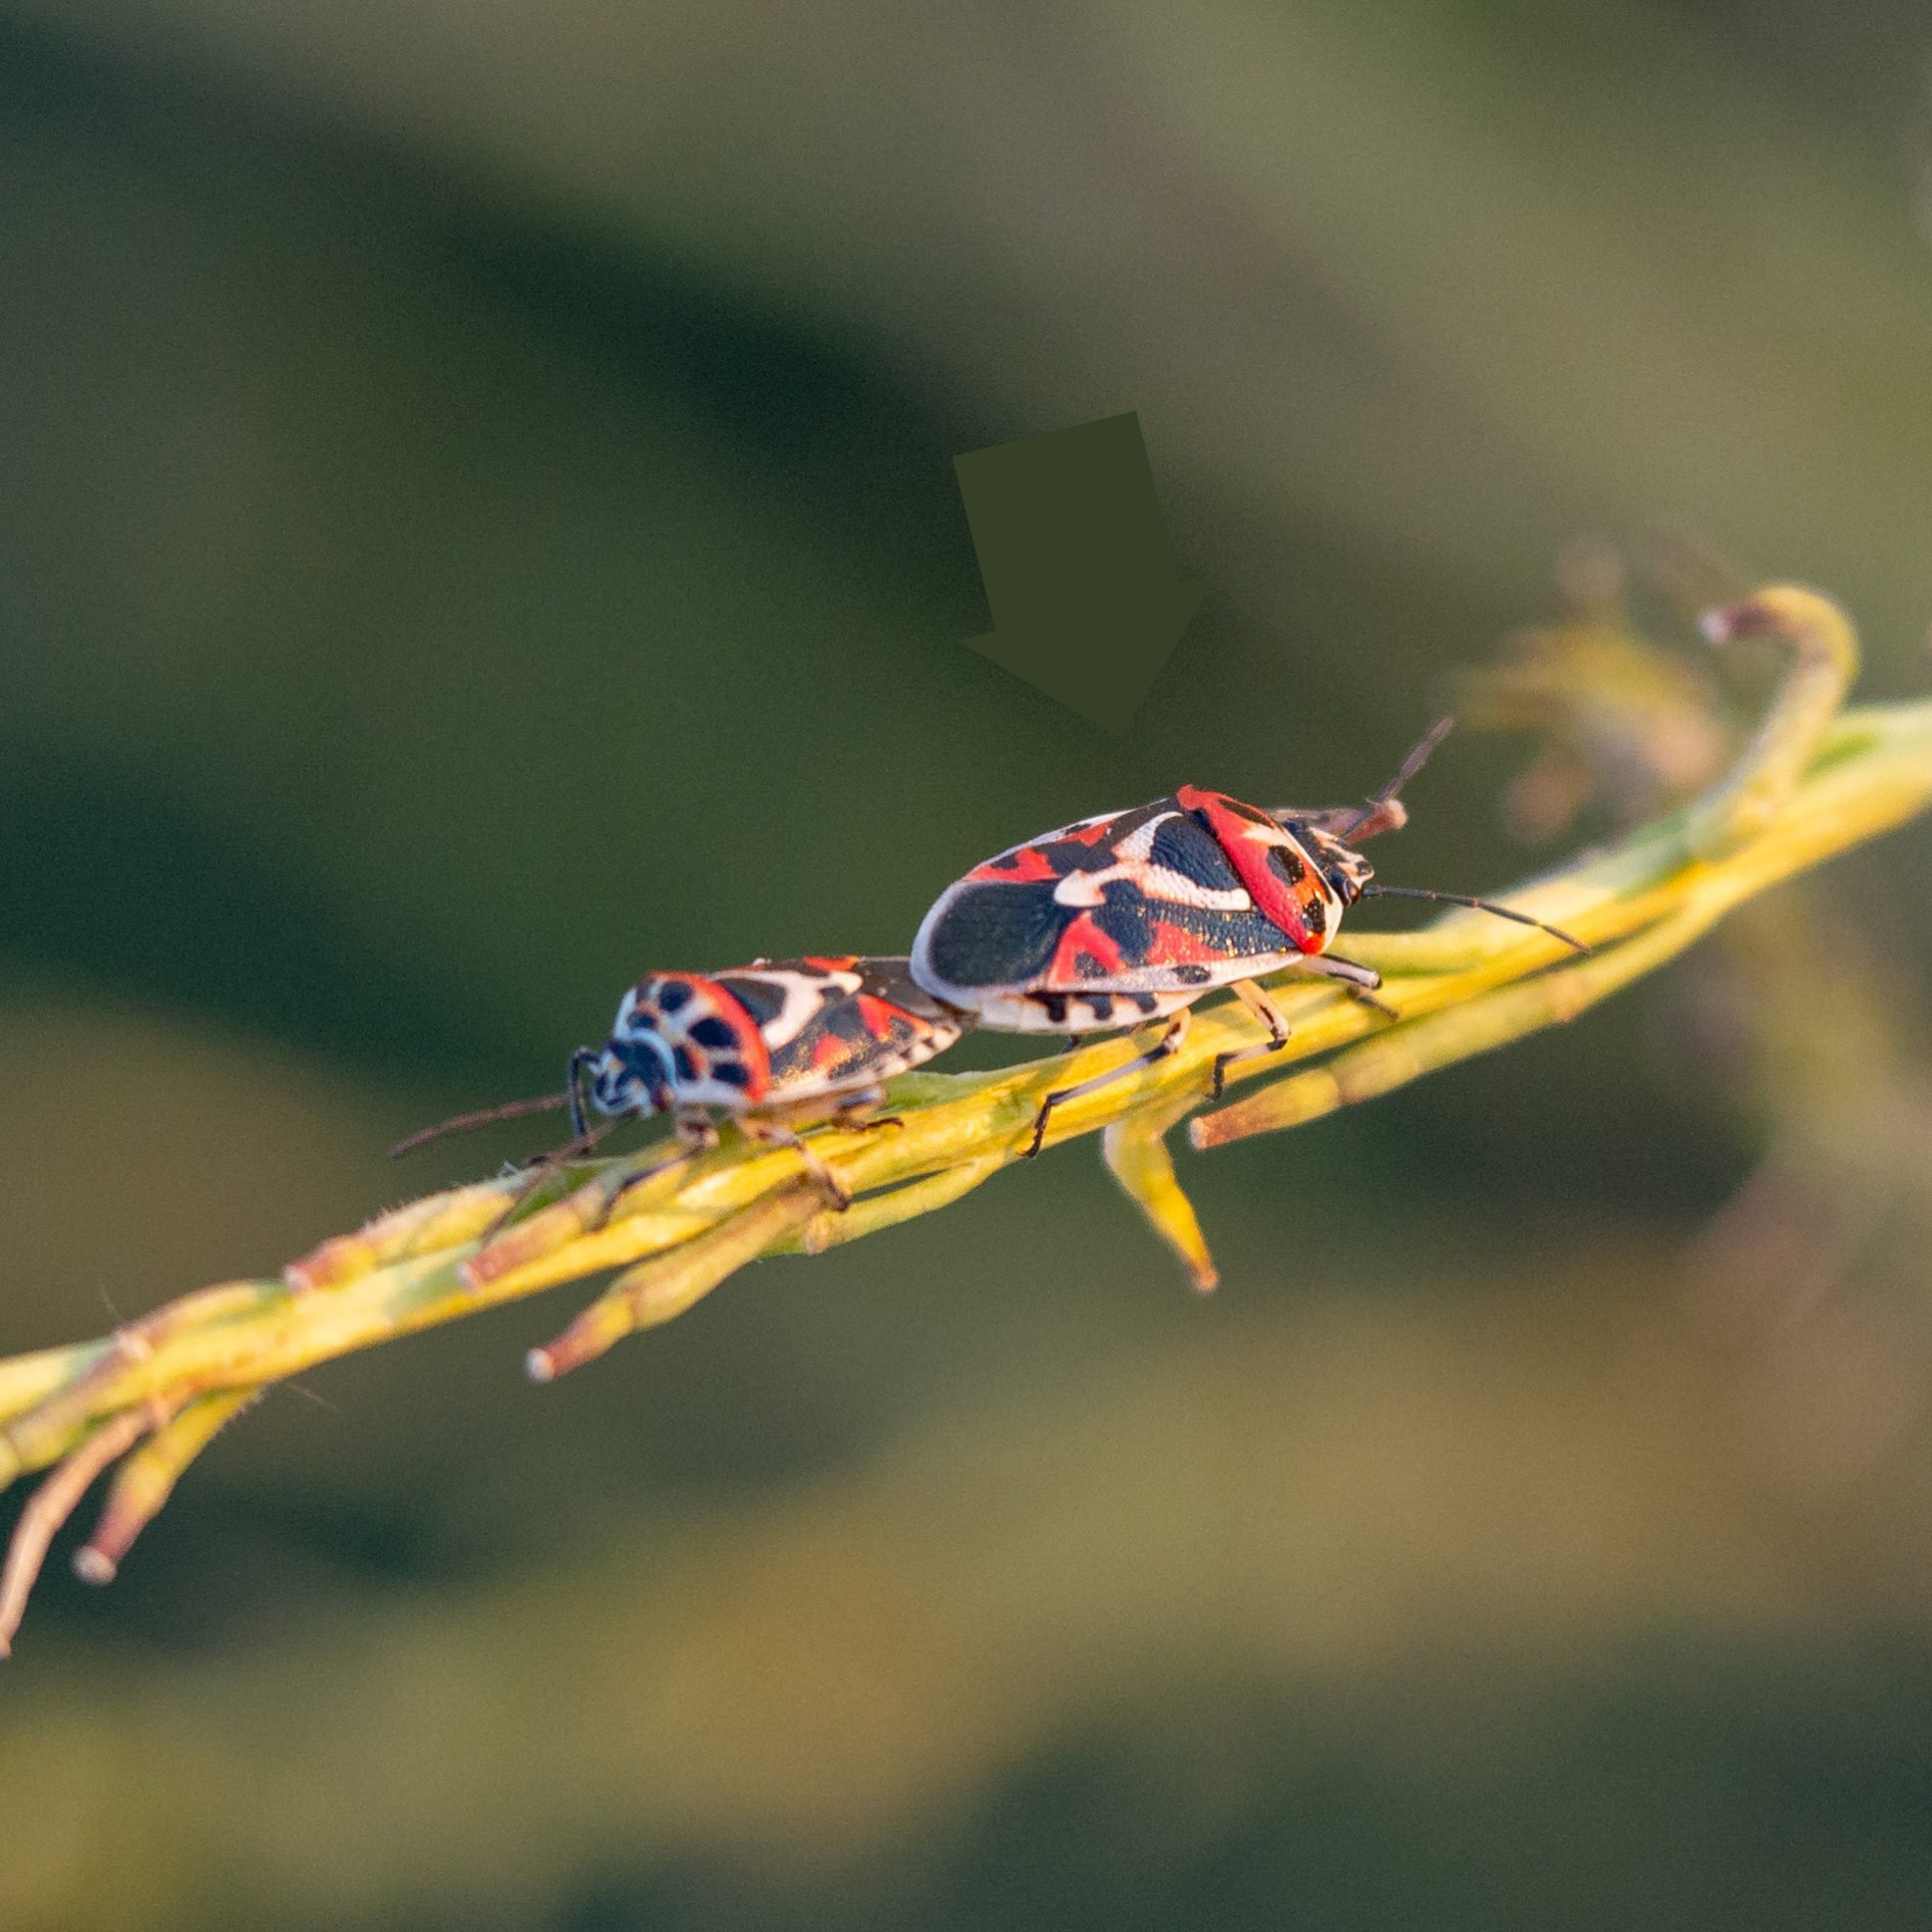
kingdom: Animalia
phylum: Arthropoda
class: Insecta
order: Hemiptera
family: Pentatomidae
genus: Eurydema
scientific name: Eurydema ornata
